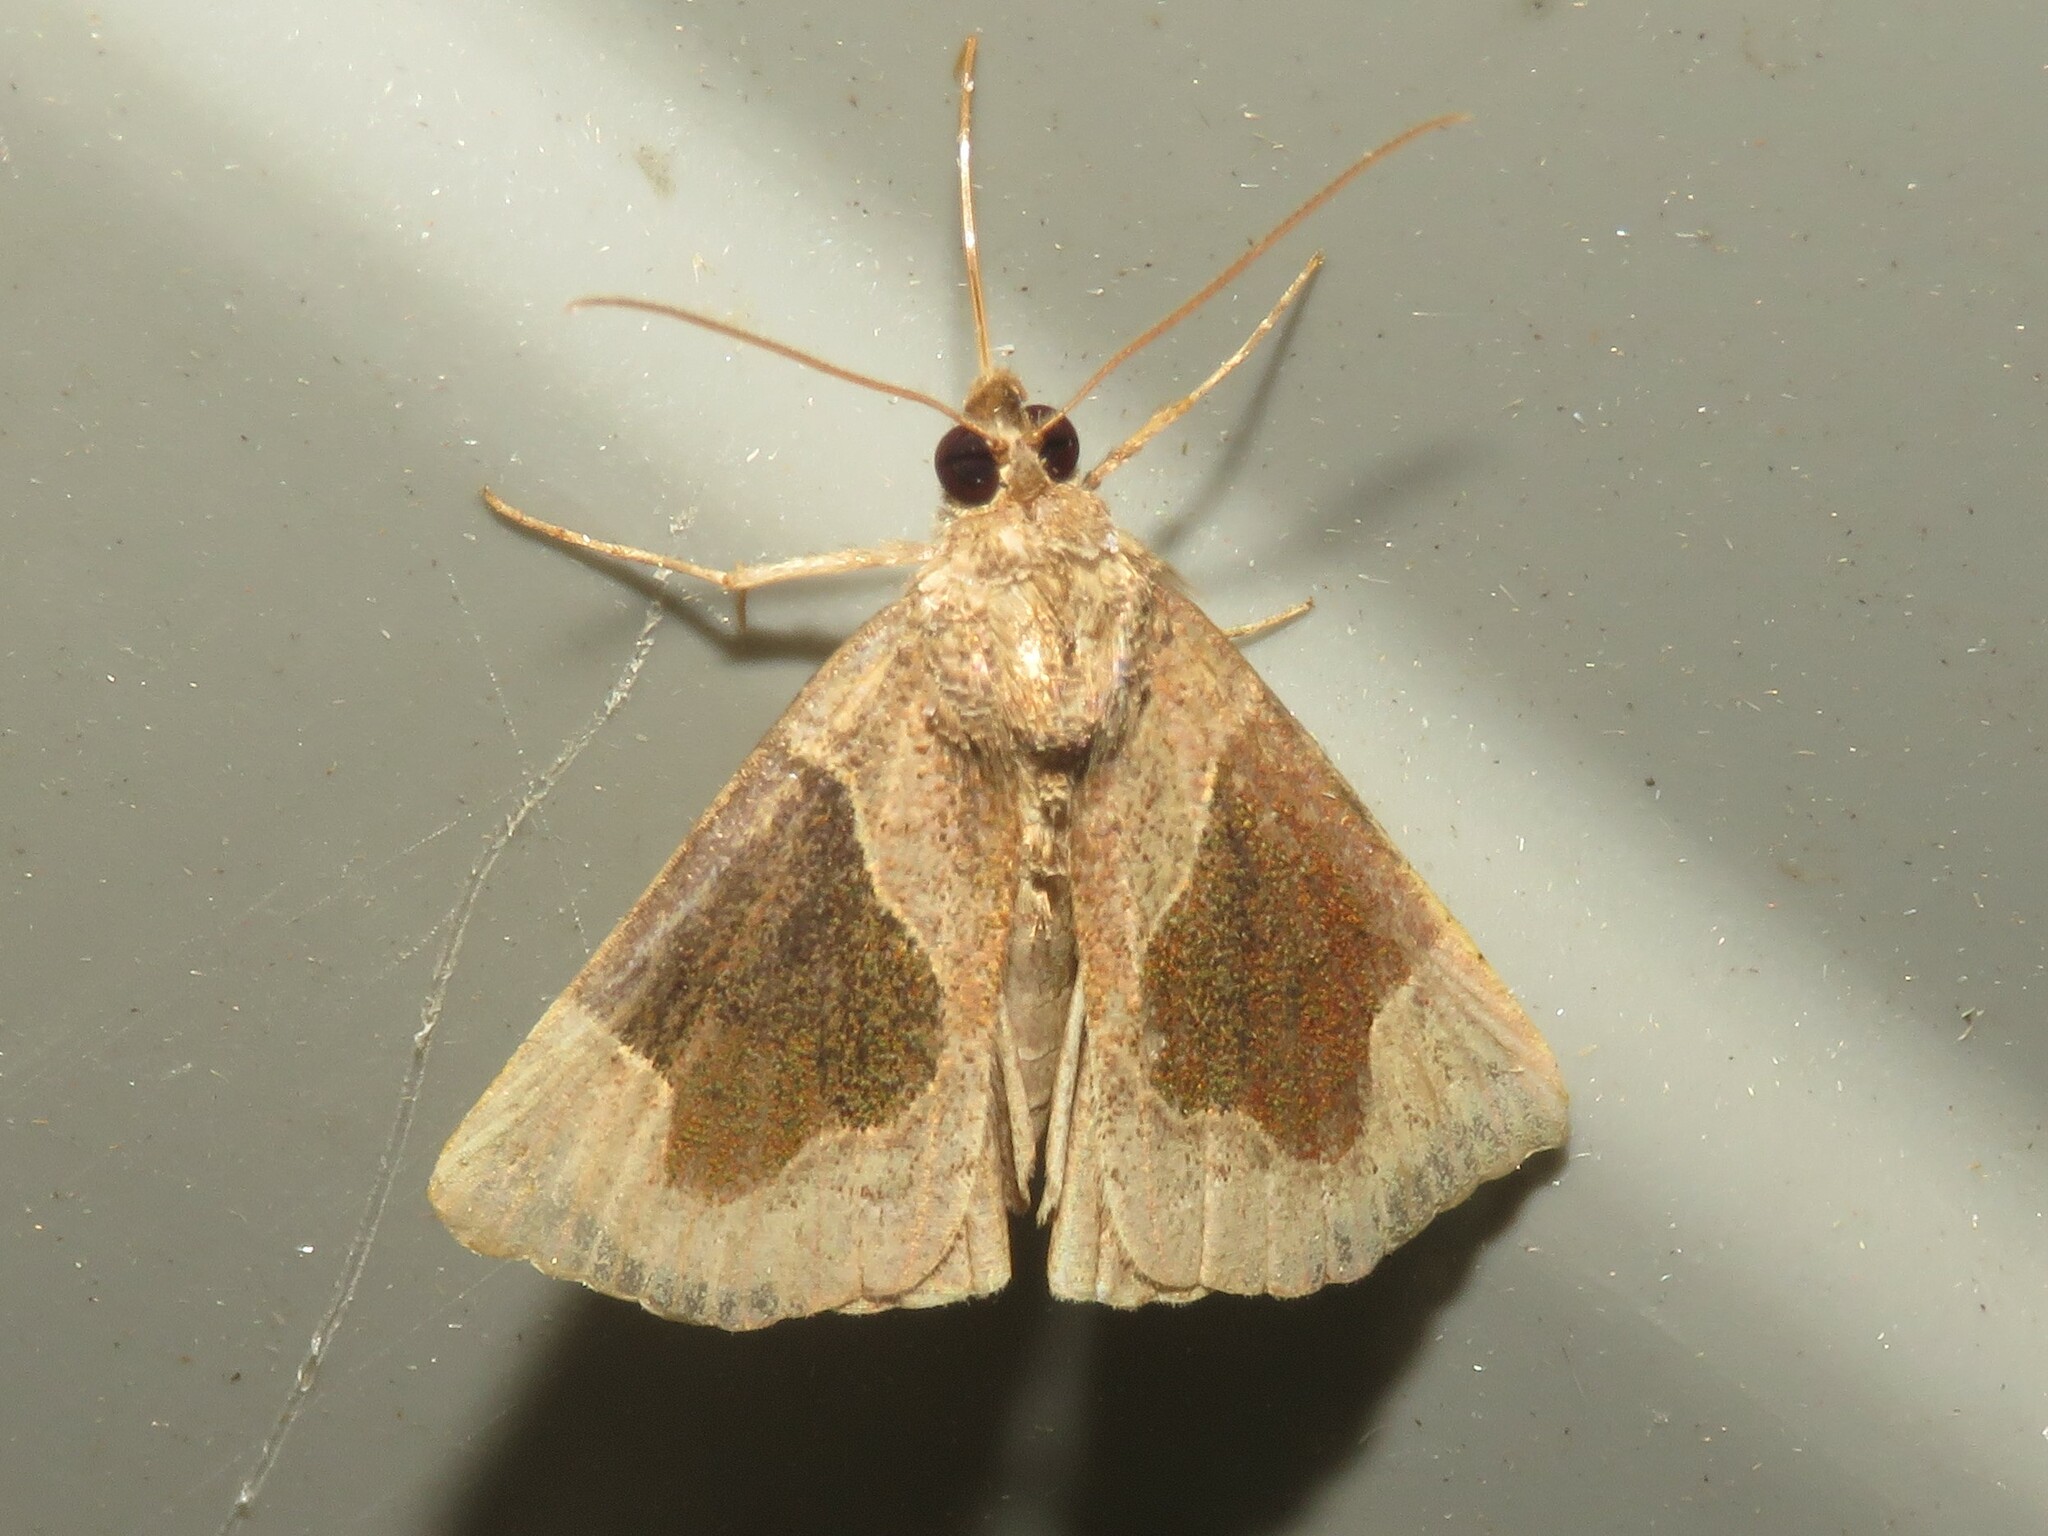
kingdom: Animalia
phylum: Arthropoda
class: Insecta
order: Lepidoptera
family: Erebidae
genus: Hypena
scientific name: Hypena manalis
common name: Flowing-line bomolocha moth
